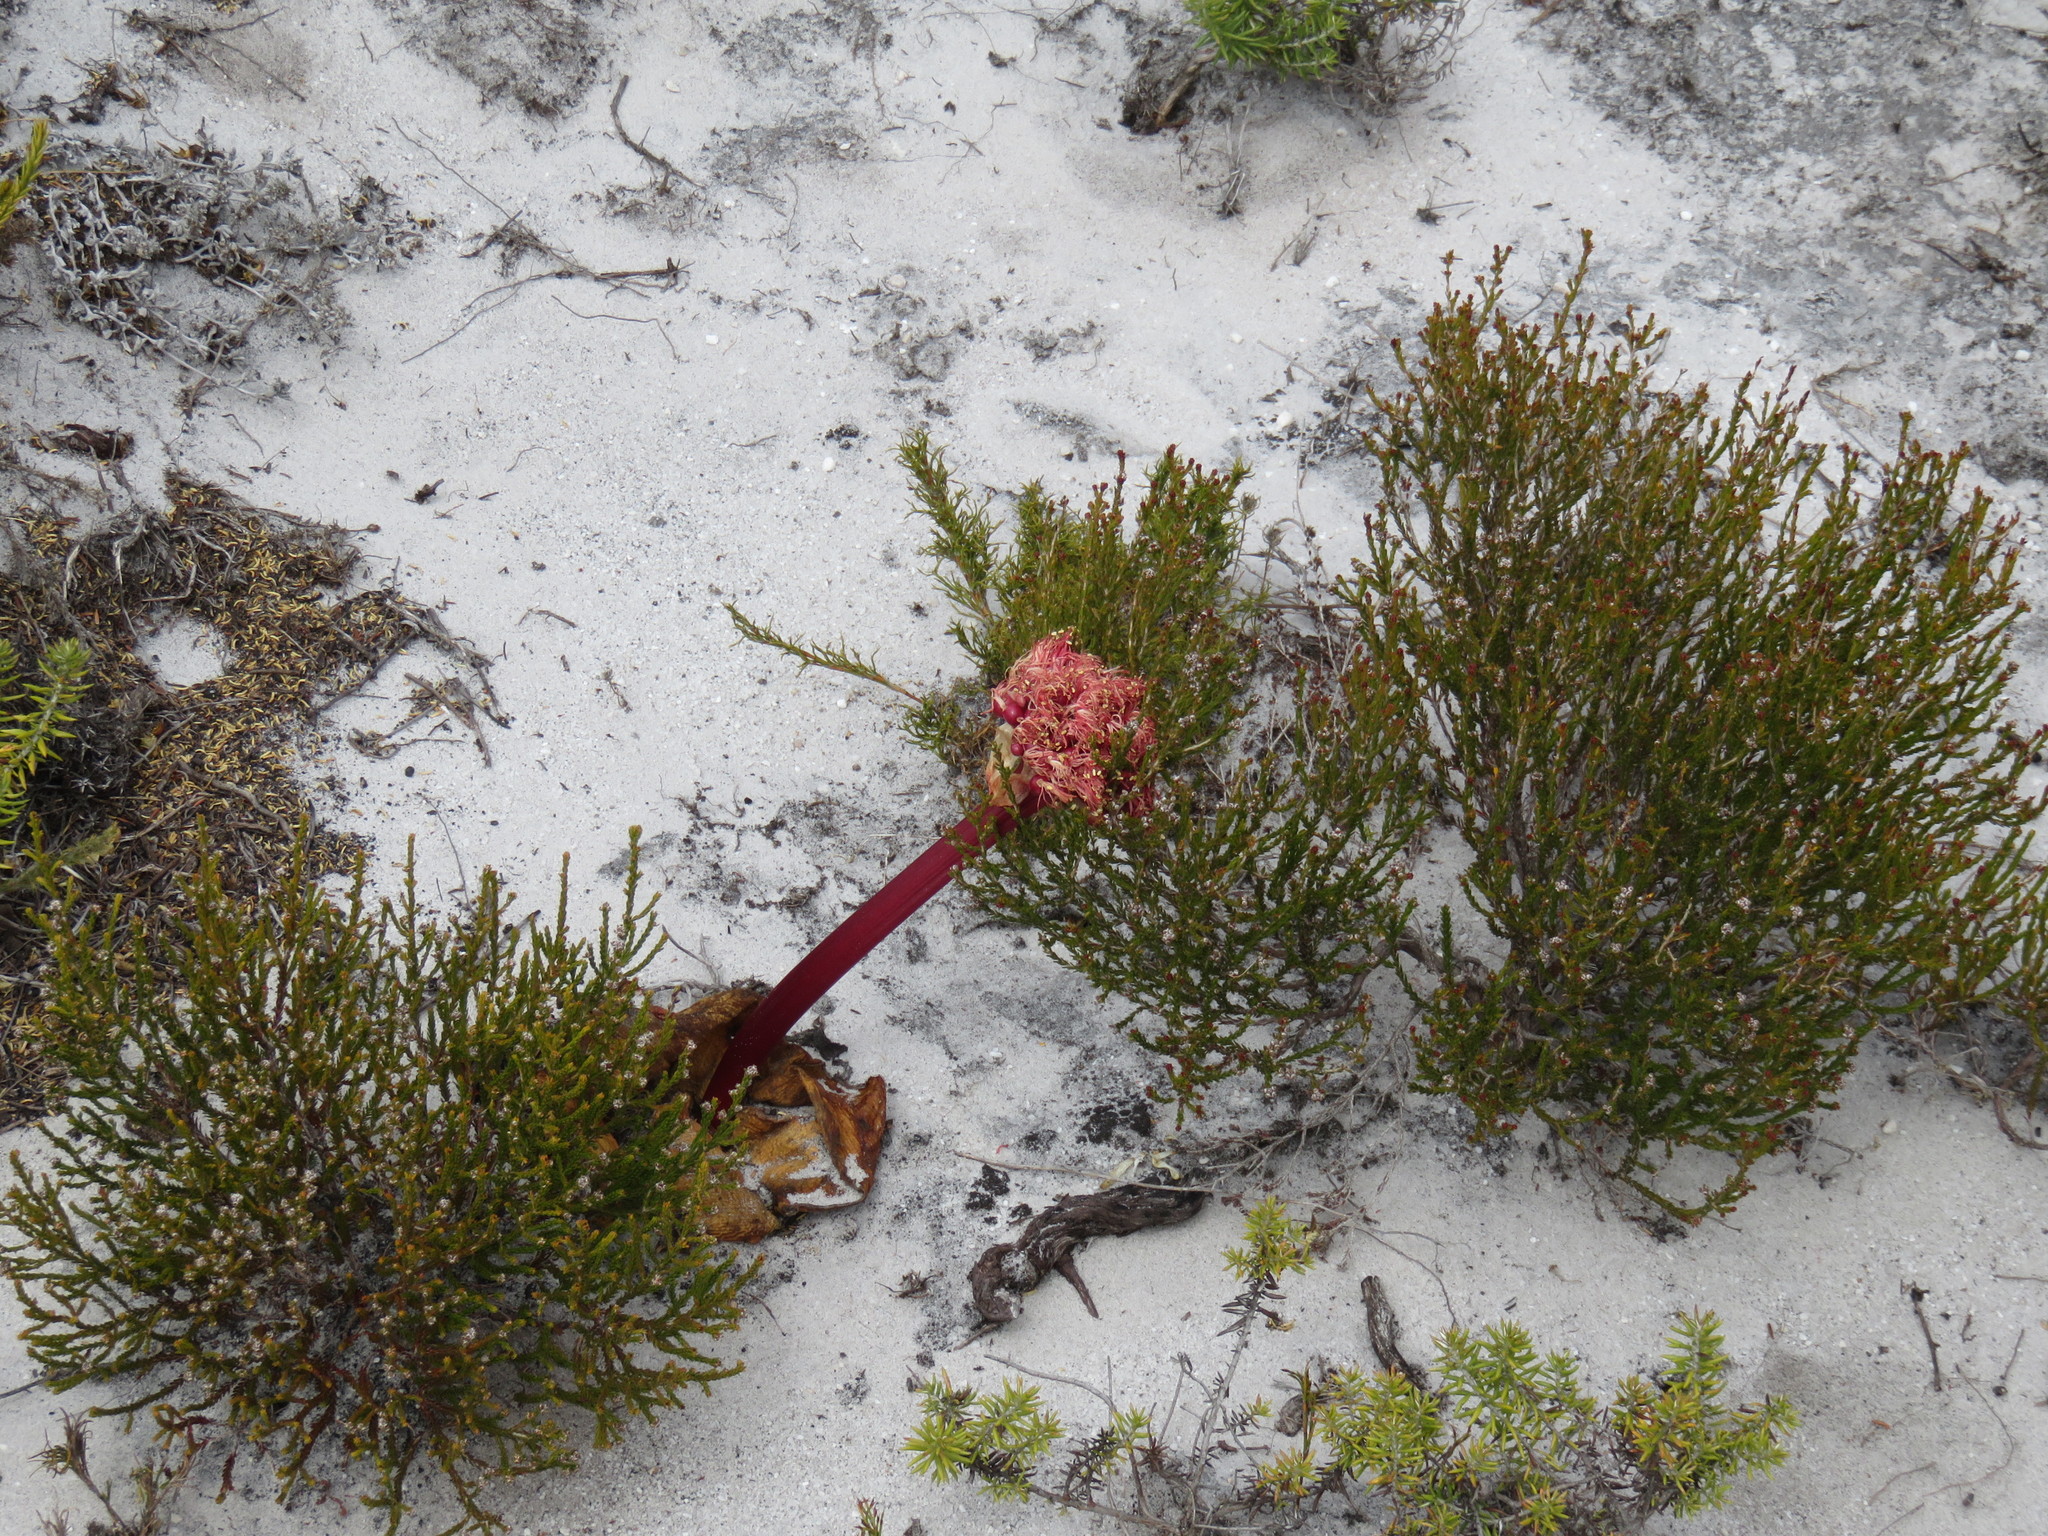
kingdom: Plantae
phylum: Tracheophyta
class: Liliopsida
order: Asparagales
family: Amaryllidaceae
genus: Haemanthus
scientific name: Haemanthus sanguineus
